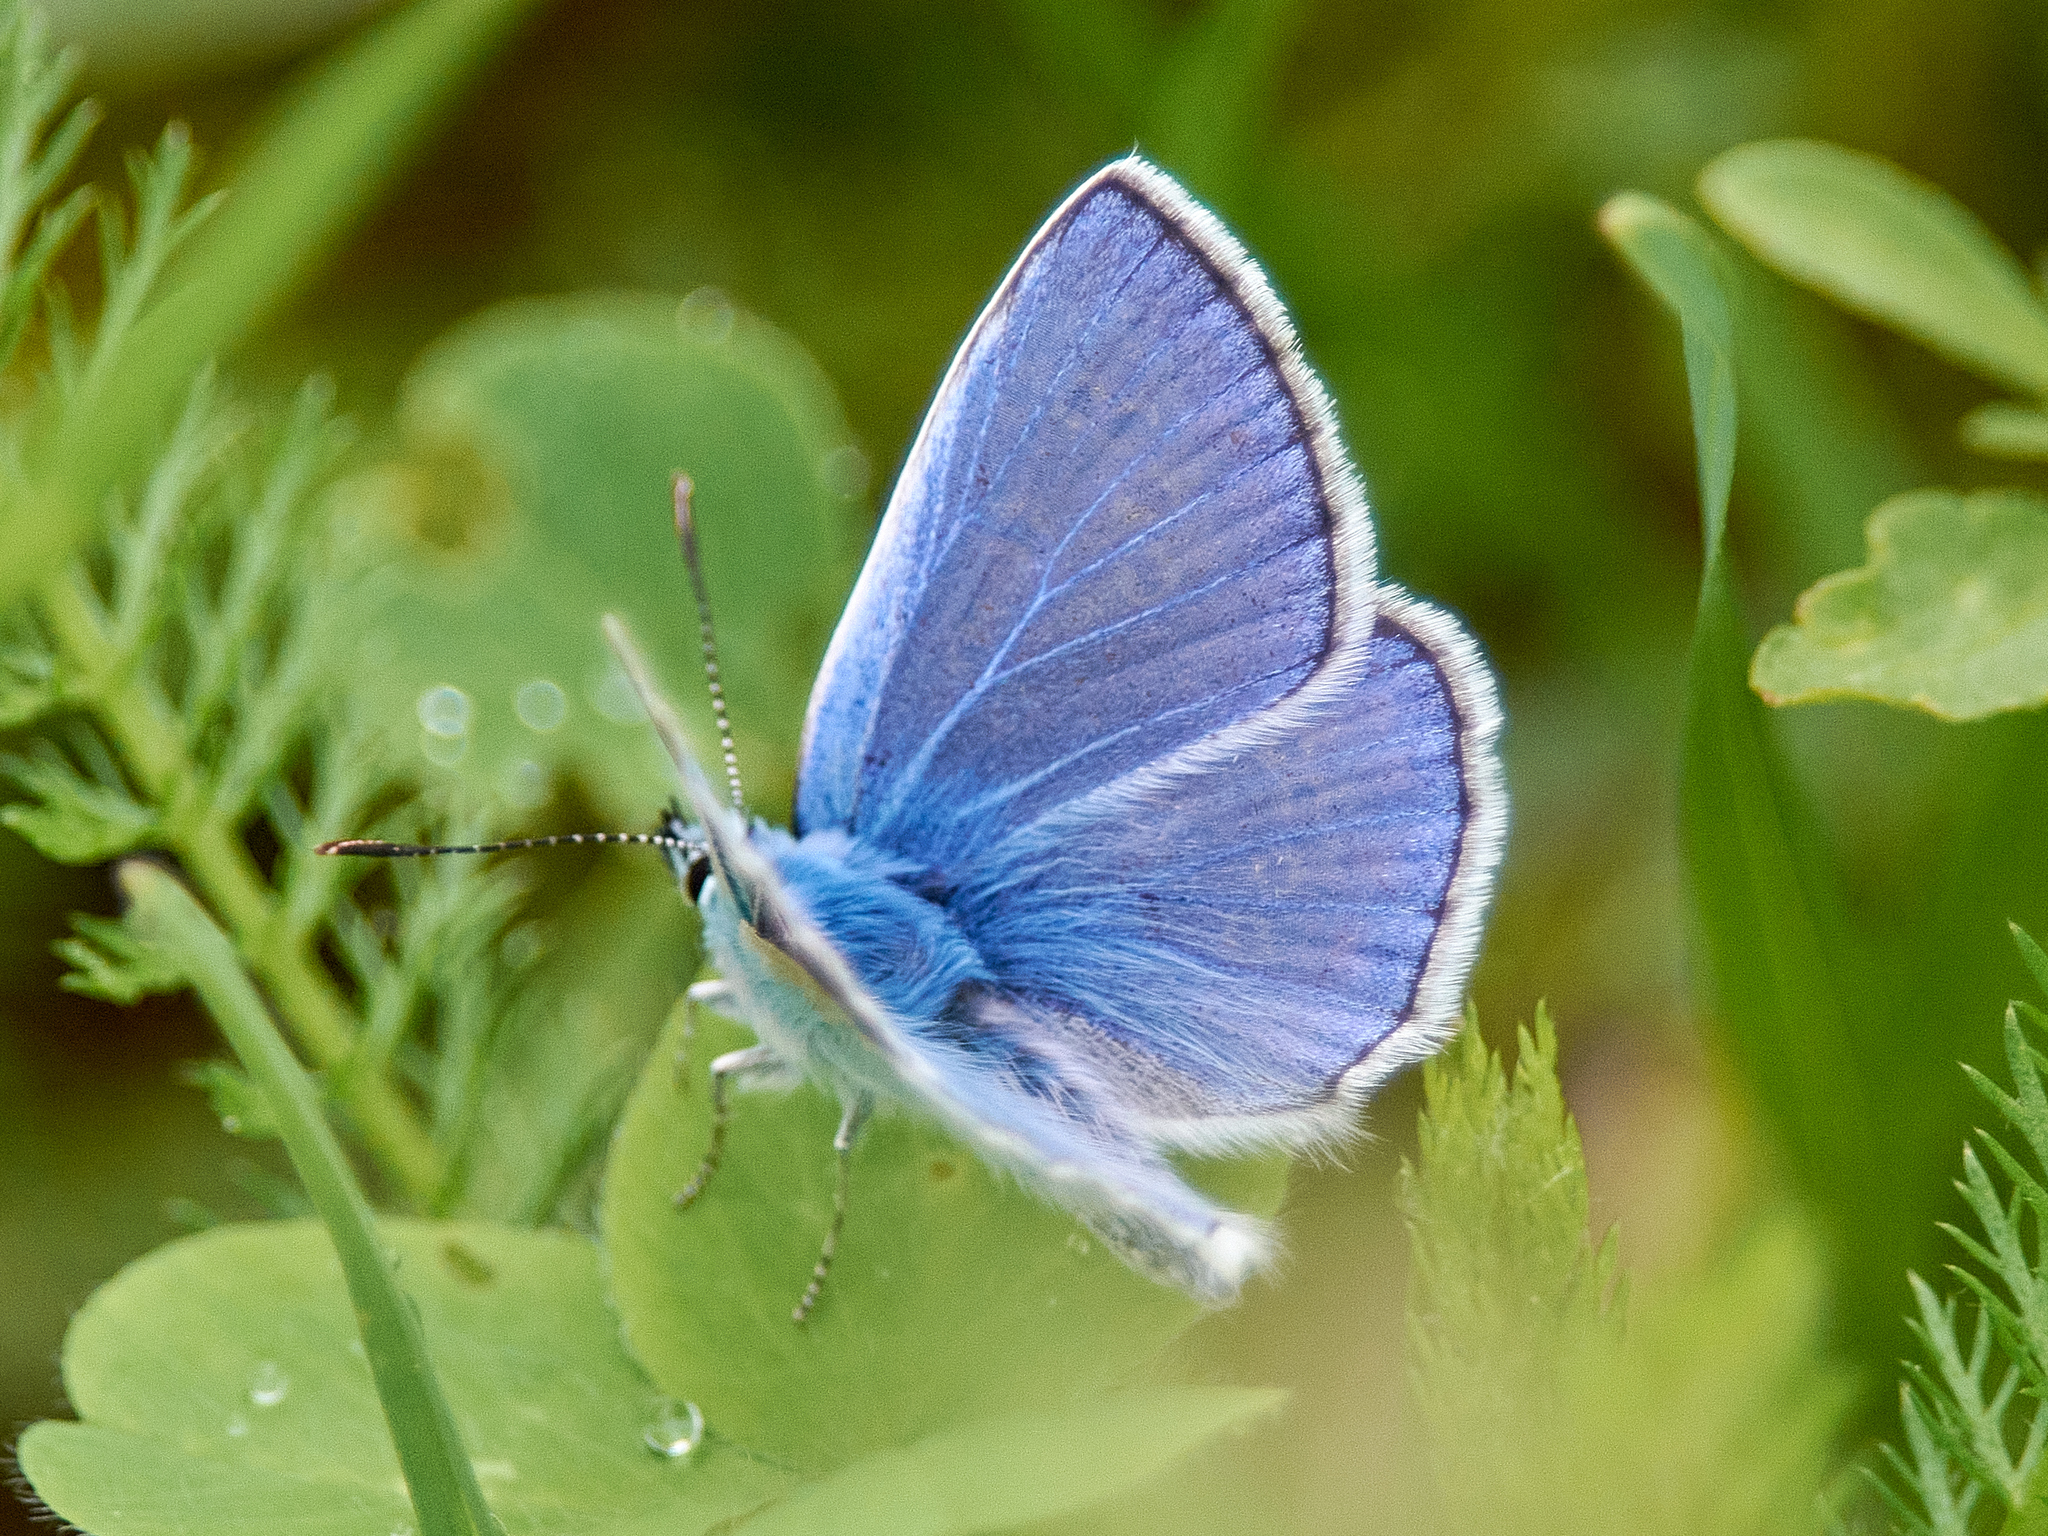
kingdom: Animalia
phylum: Arthropoda
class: Insecta
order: Lepidoptera
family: Lycaenidae
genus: Polyommatus
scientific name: Polyommatus icarus
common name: Common blue
